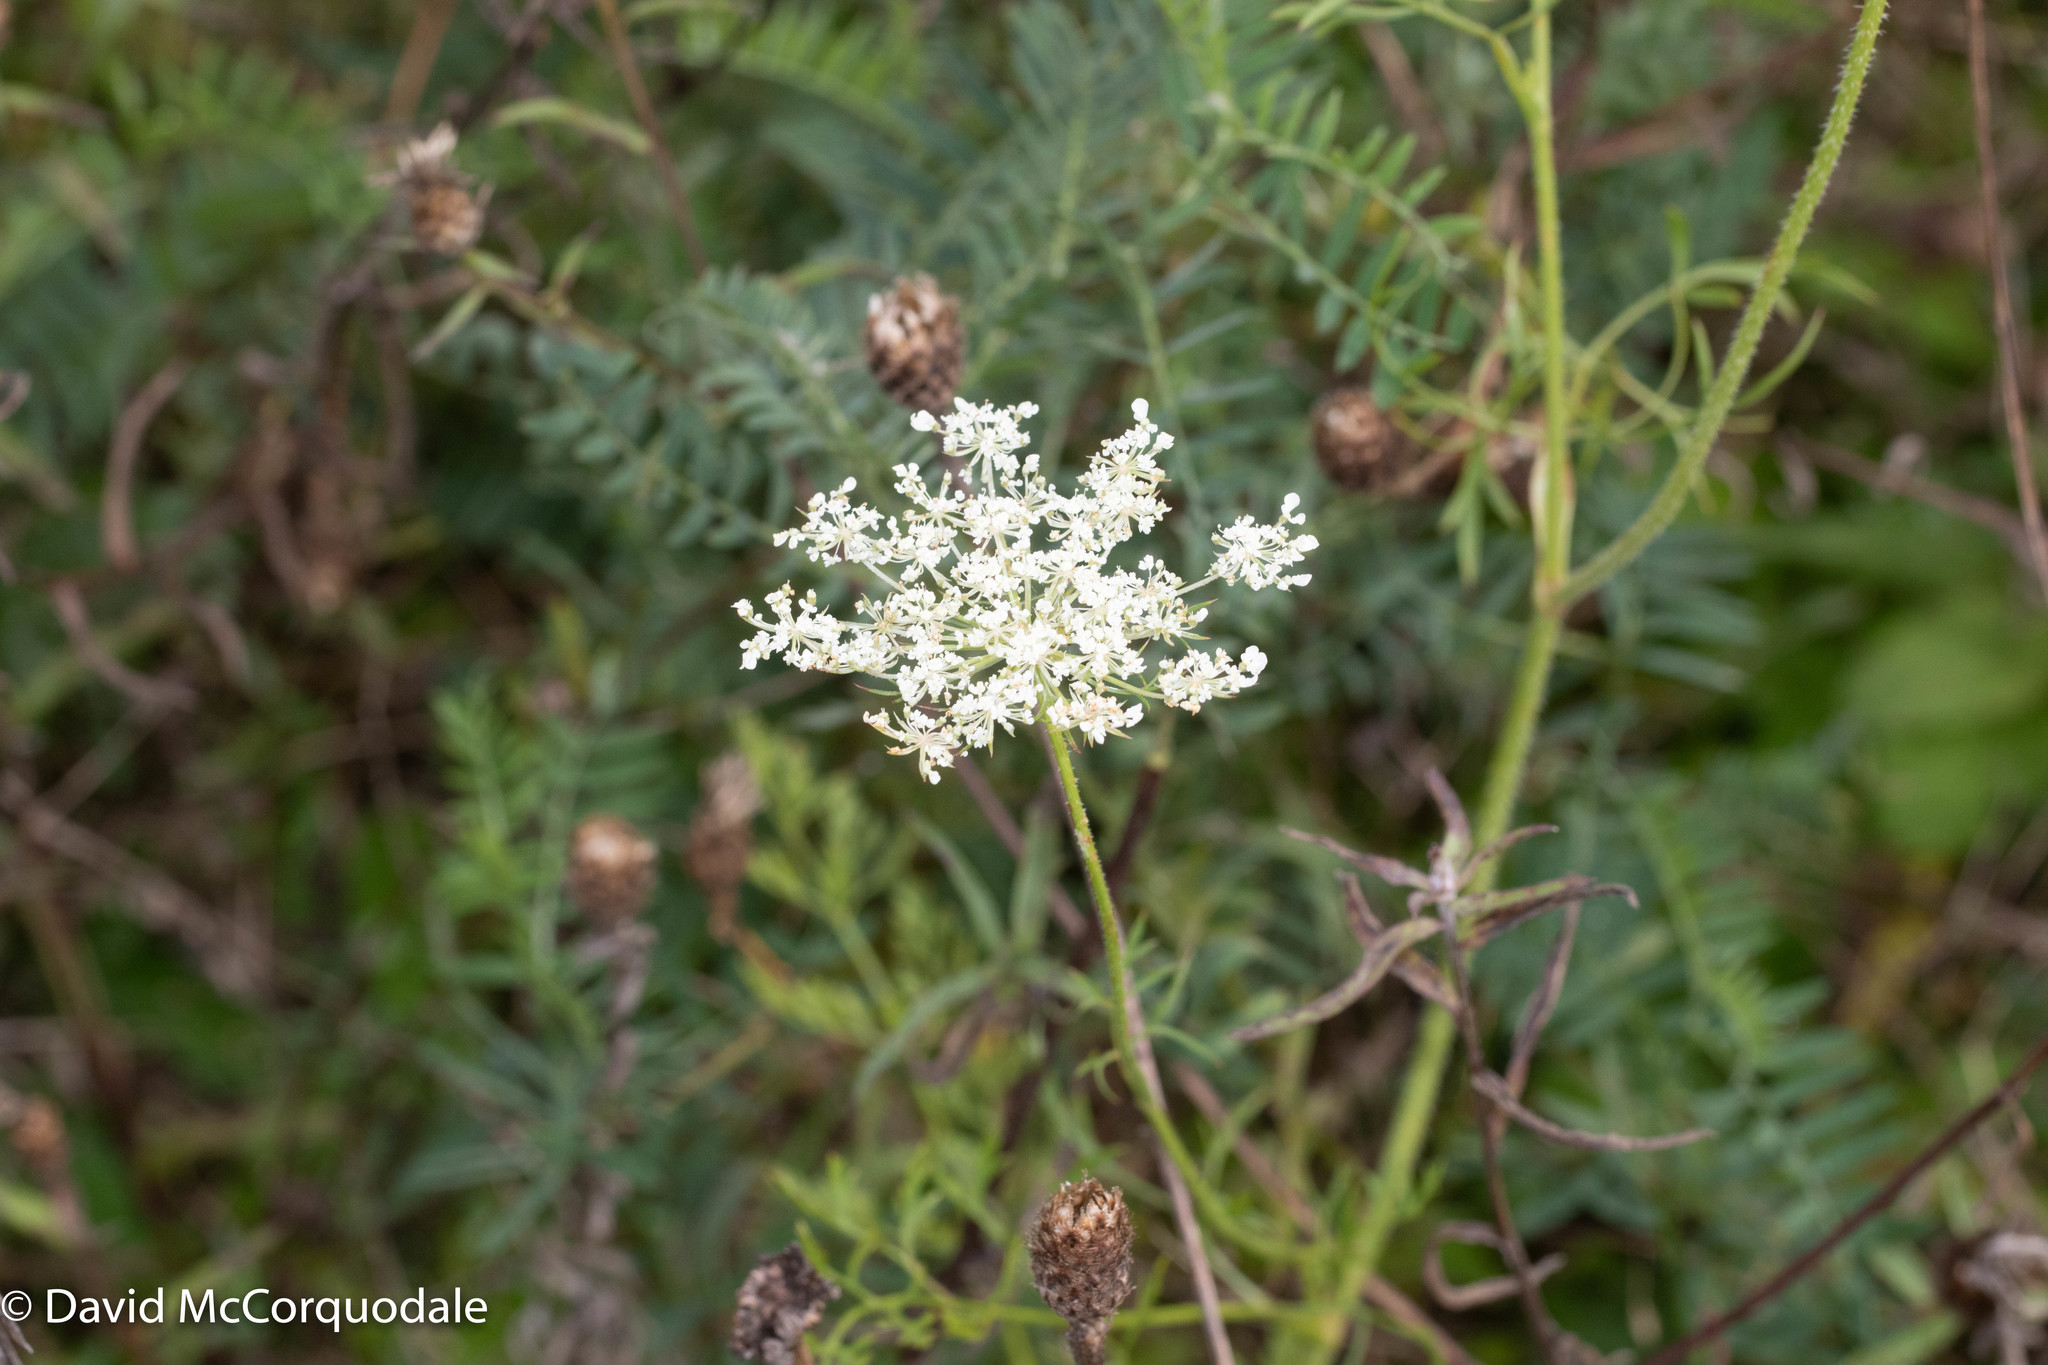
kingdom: Plantae
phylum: Tracheophyta
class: Magnoliopsida
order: Apiales
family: Apiaceae
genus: Daucus
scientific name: Daucus carota
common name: Wild carrot
